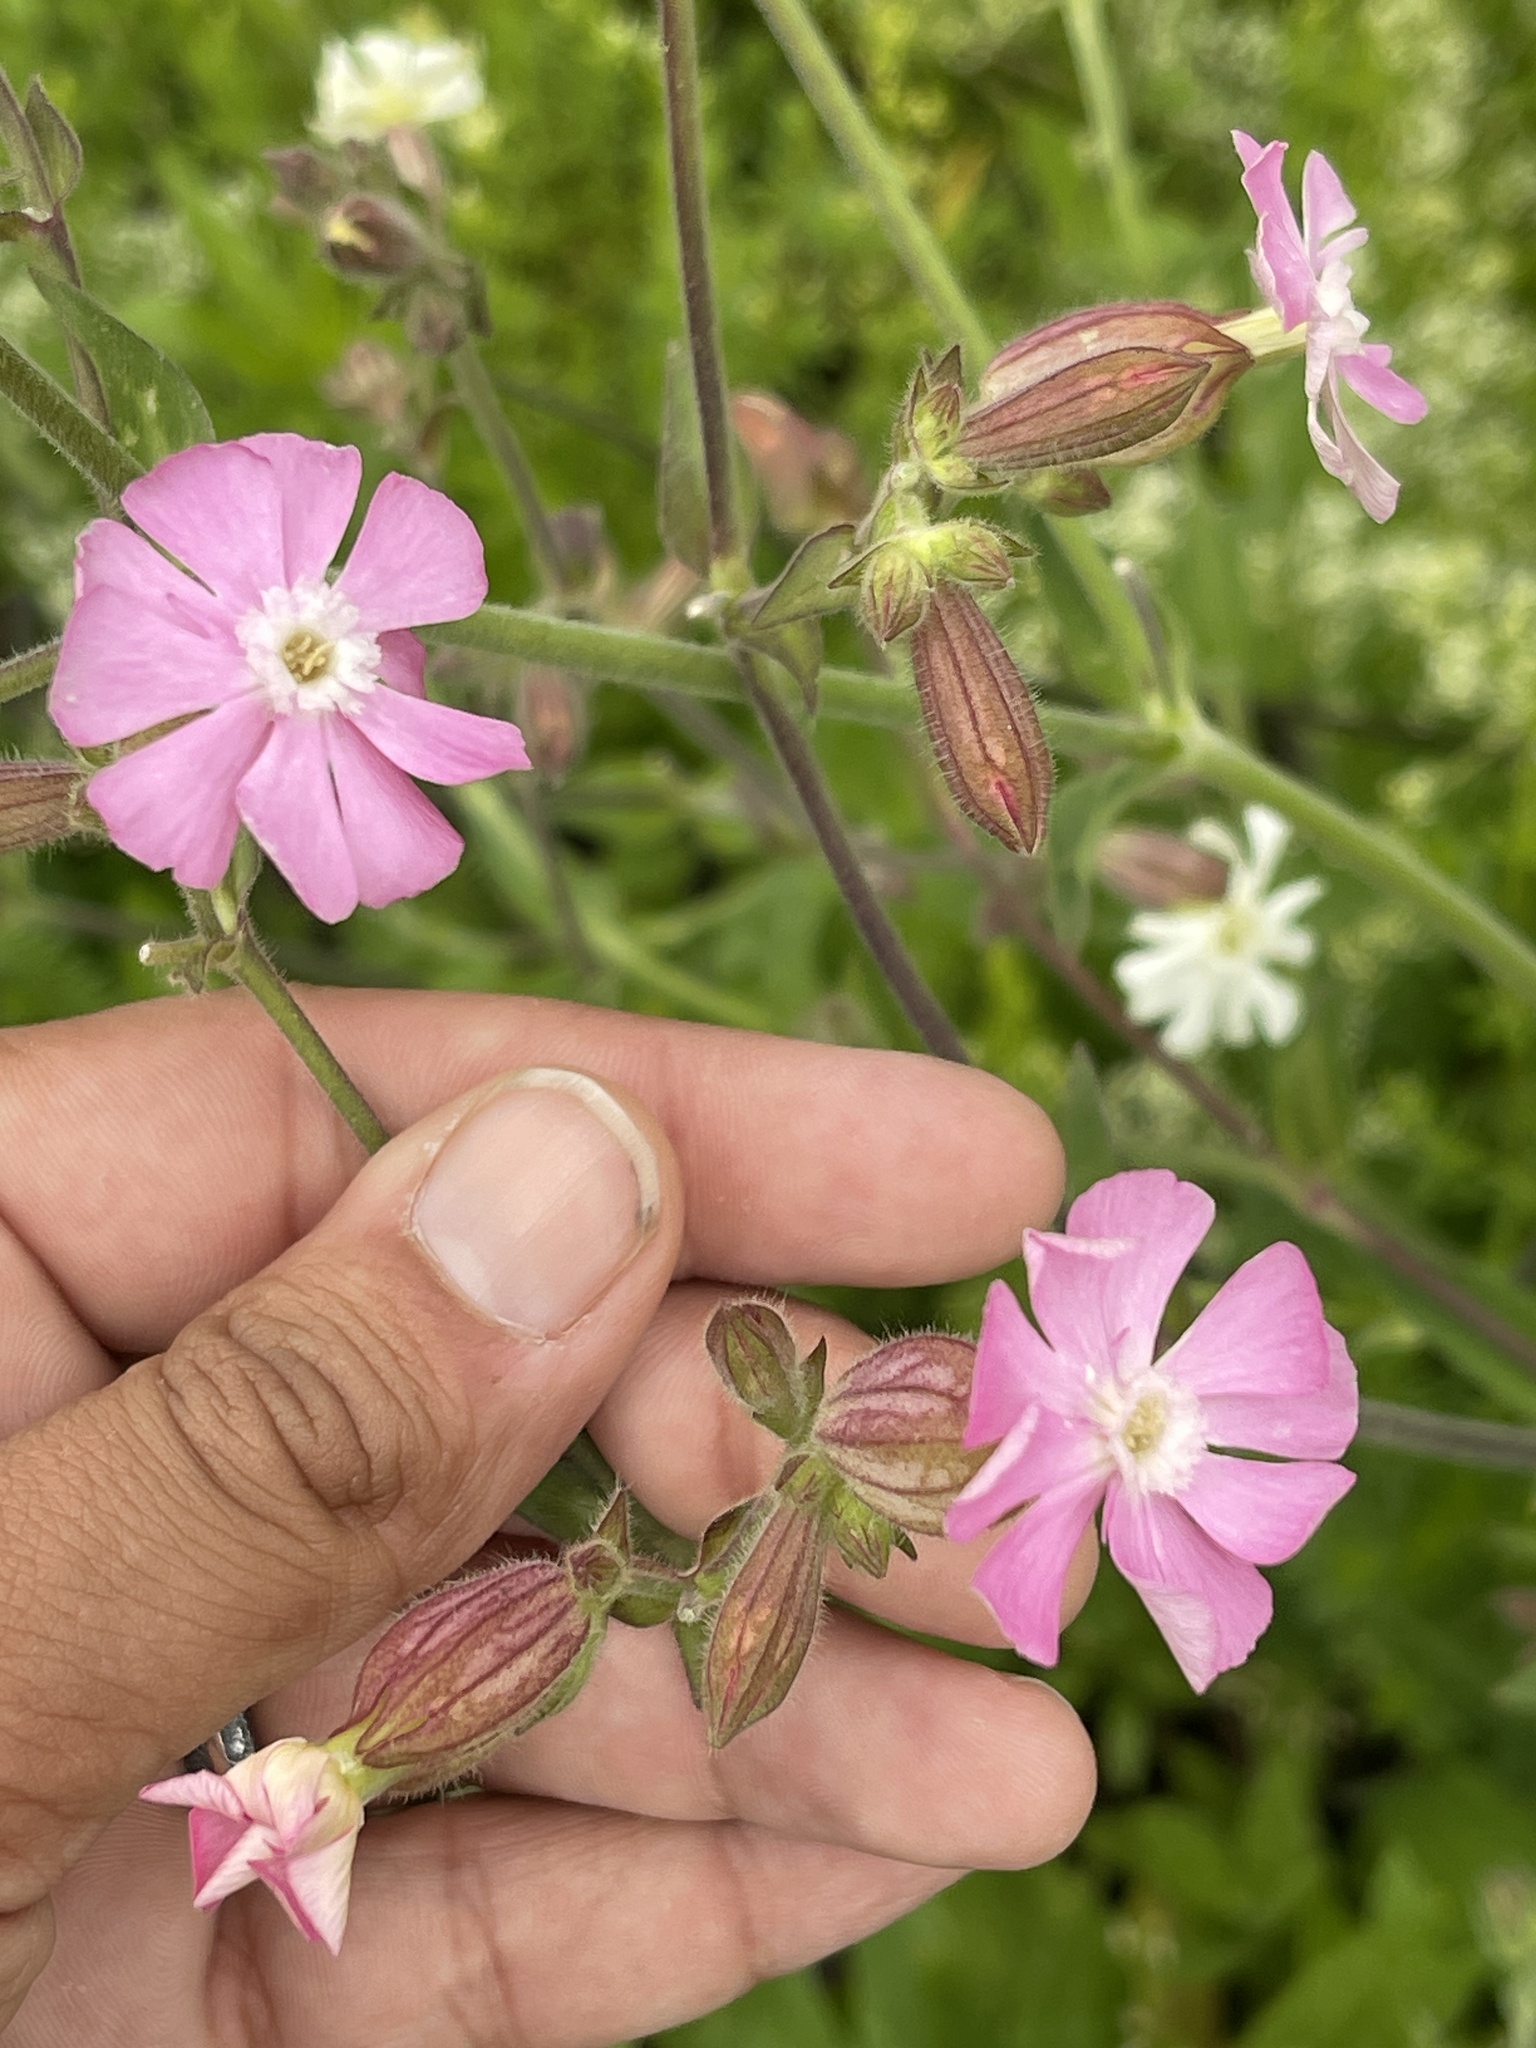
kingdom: Plantae
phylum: Tracheophyta
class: Magnoliopsida
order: Caryophyllales
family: Caryophyllaceae
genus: Silene
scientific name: Silene dioica
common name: Red campion
